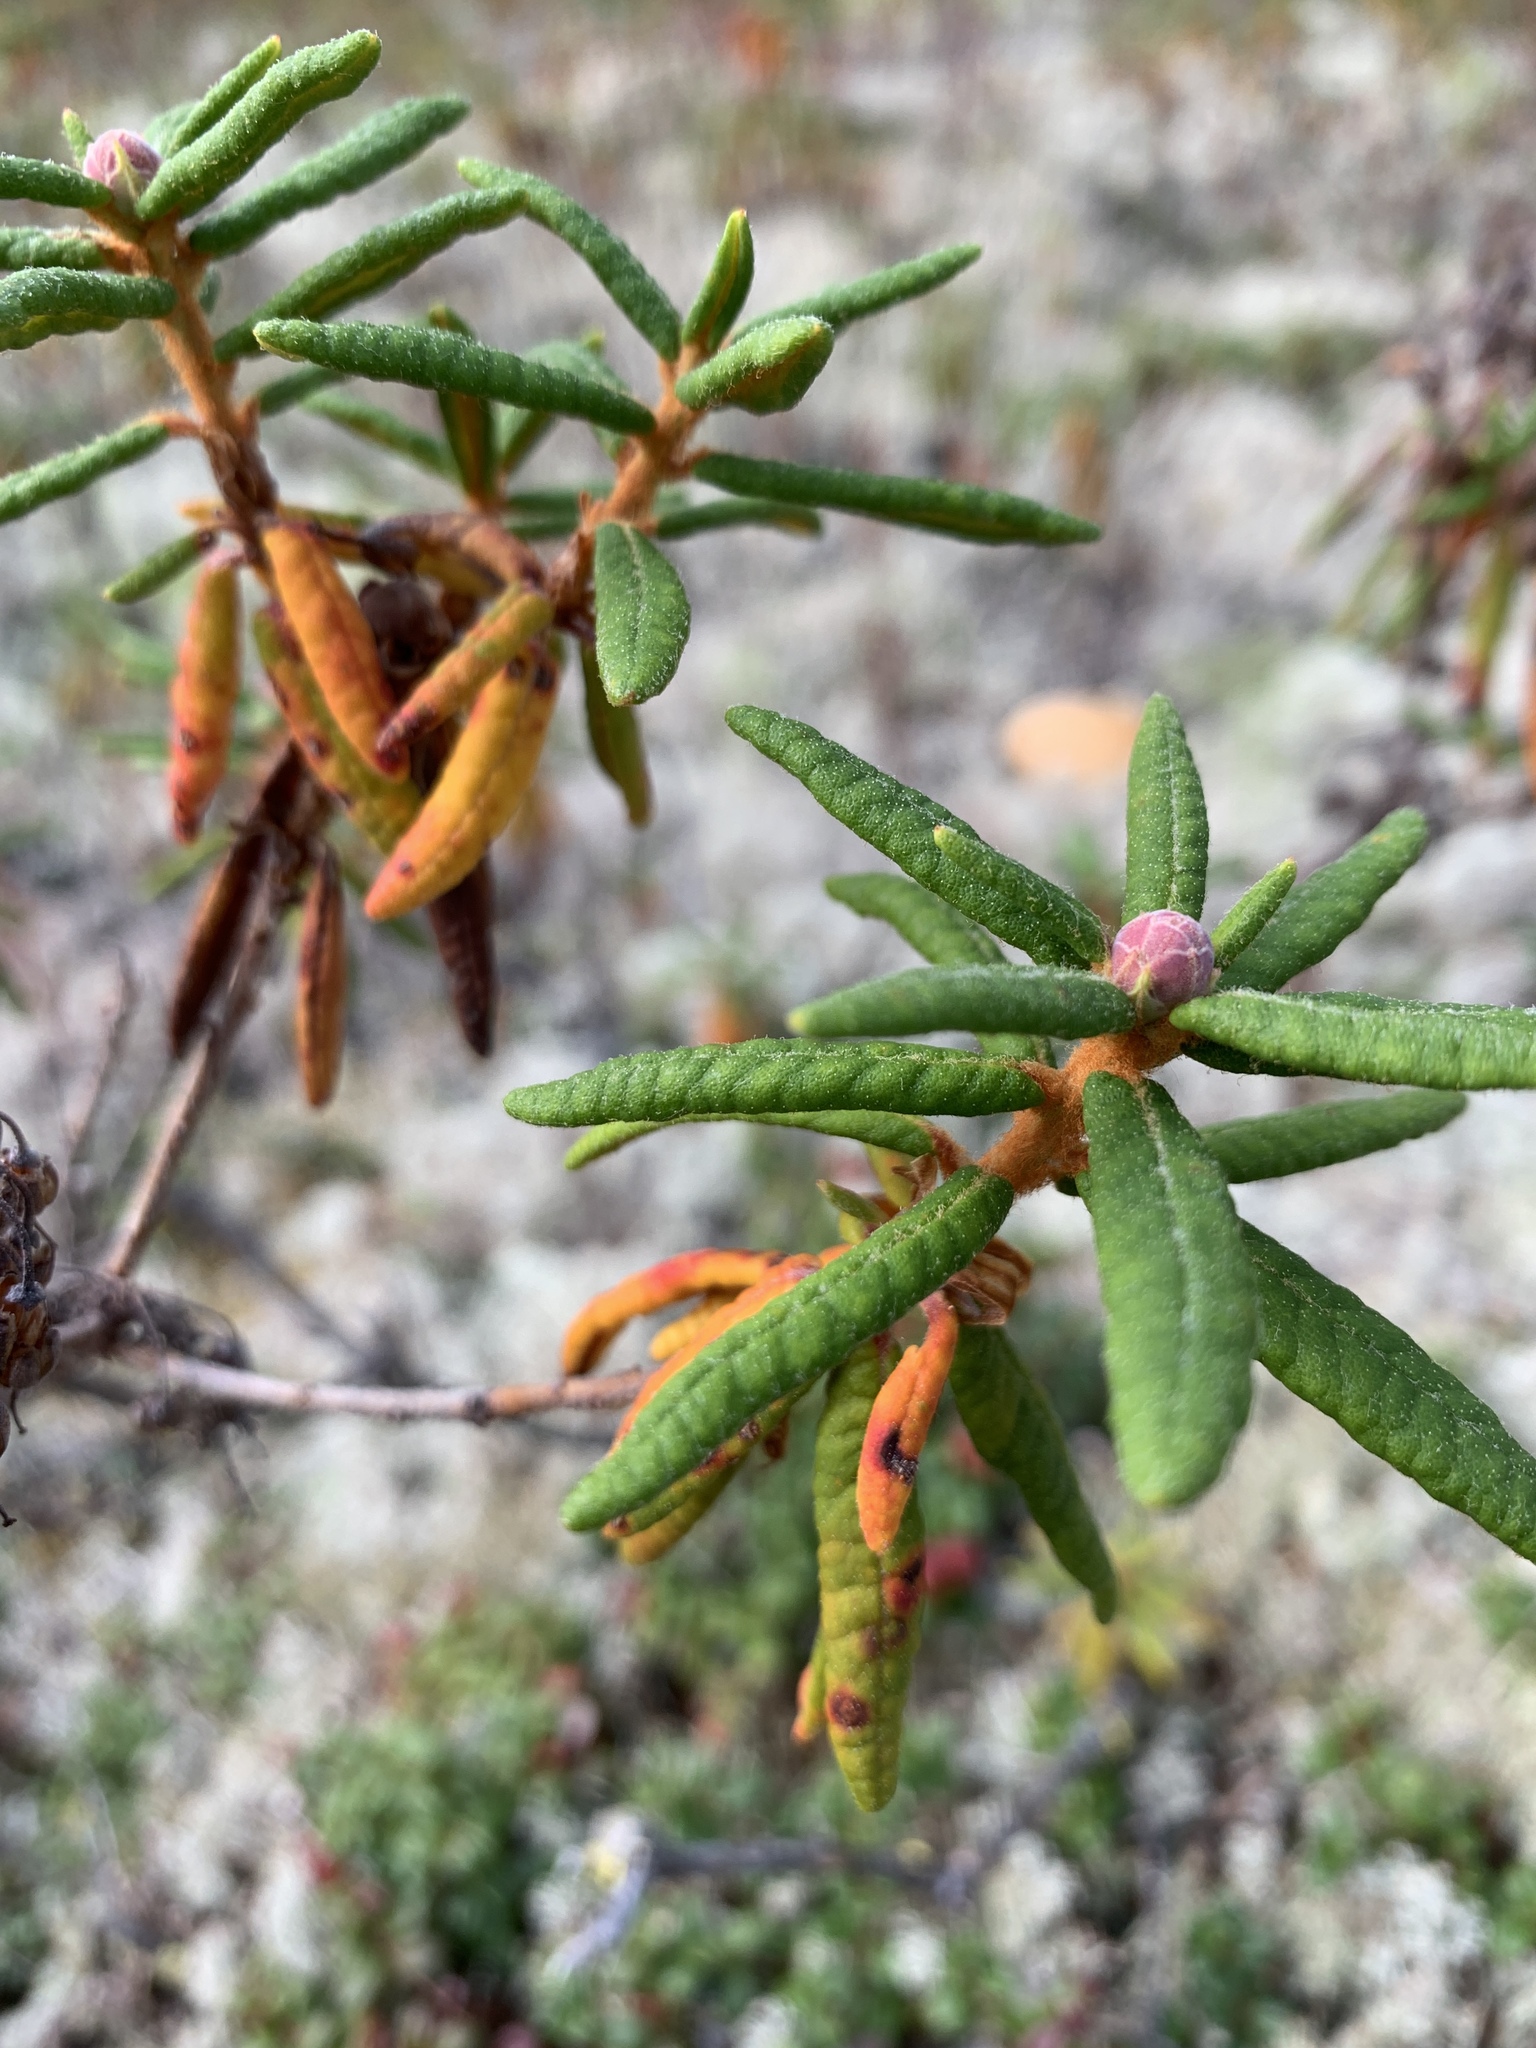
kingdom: Plantae
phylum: Tracheophyta
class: Magnoliopsida
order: Ericales
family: Ericaceae
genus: Rhododendron
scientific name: Rhododendron groenlandicum
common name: Bog labrador tea
